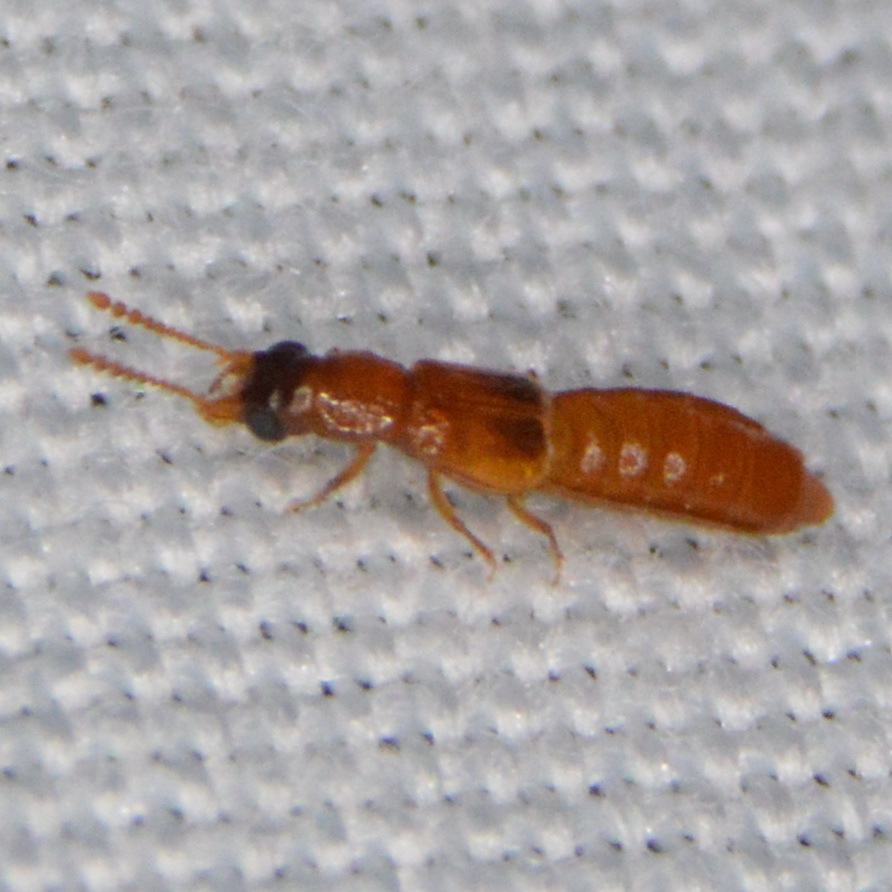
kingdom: Animalia
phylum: Arthropoda
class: Insecta
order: Coleoptera
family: Staphylinidae
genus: Manda
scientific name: Manda nearctica
